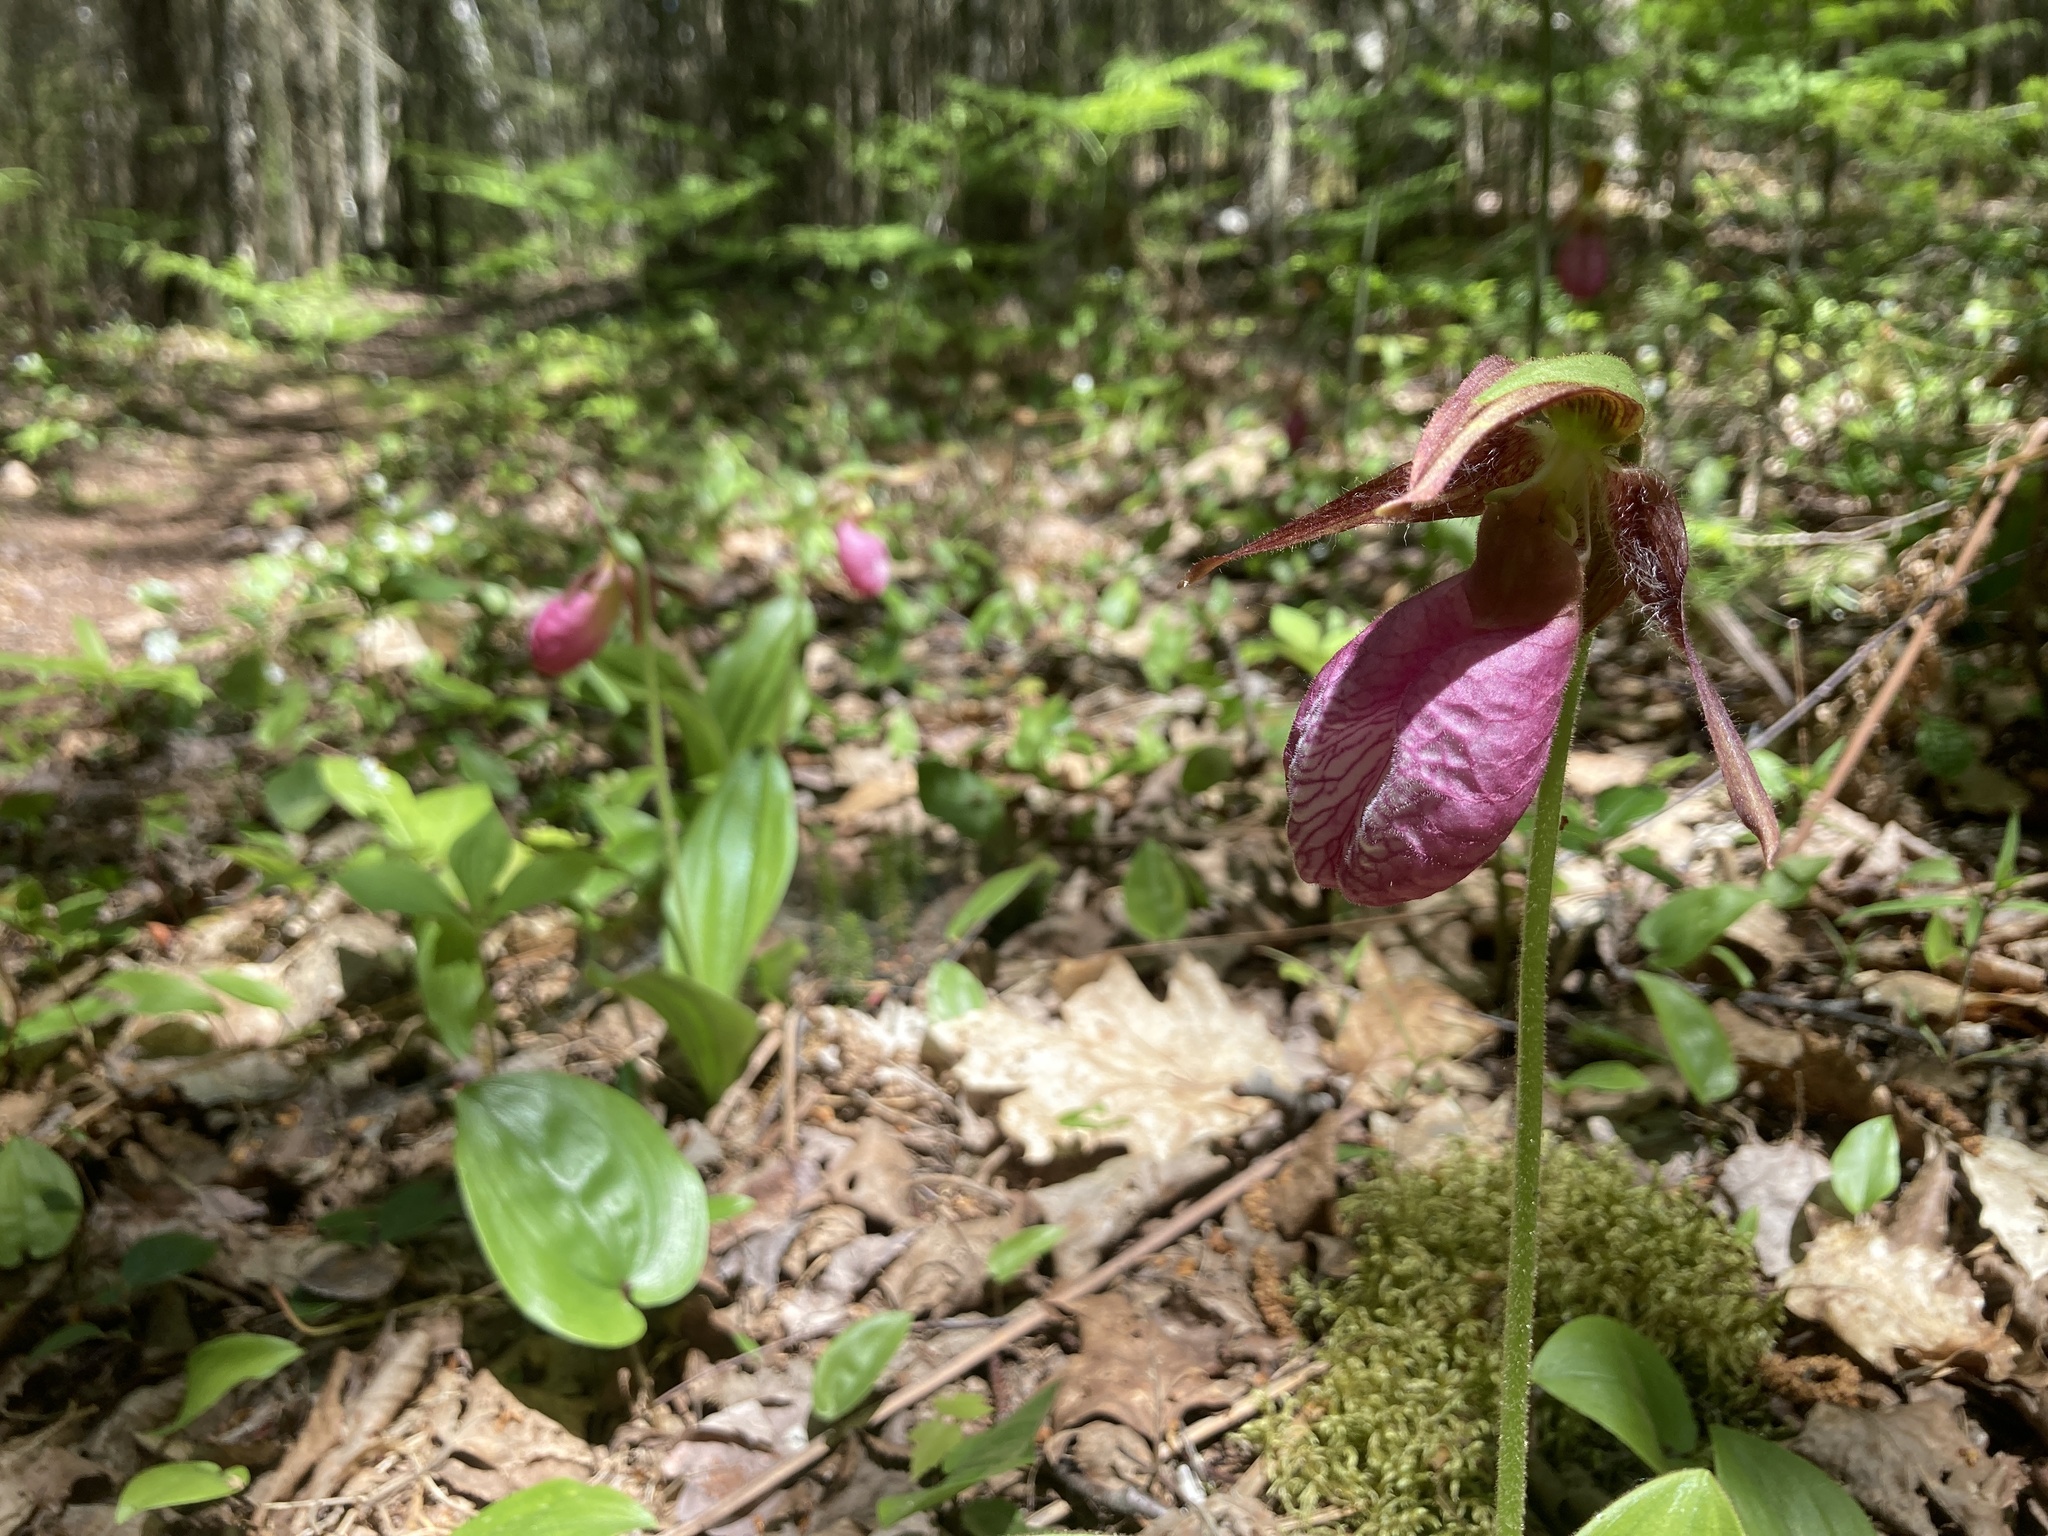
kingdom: Plantae
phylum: Tracheophyta
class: Liliopsida
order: Asparagales
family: Orchidaceae
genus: Cypripedium
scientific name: Cypripedium acaule
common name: Pink lady's-slipper
